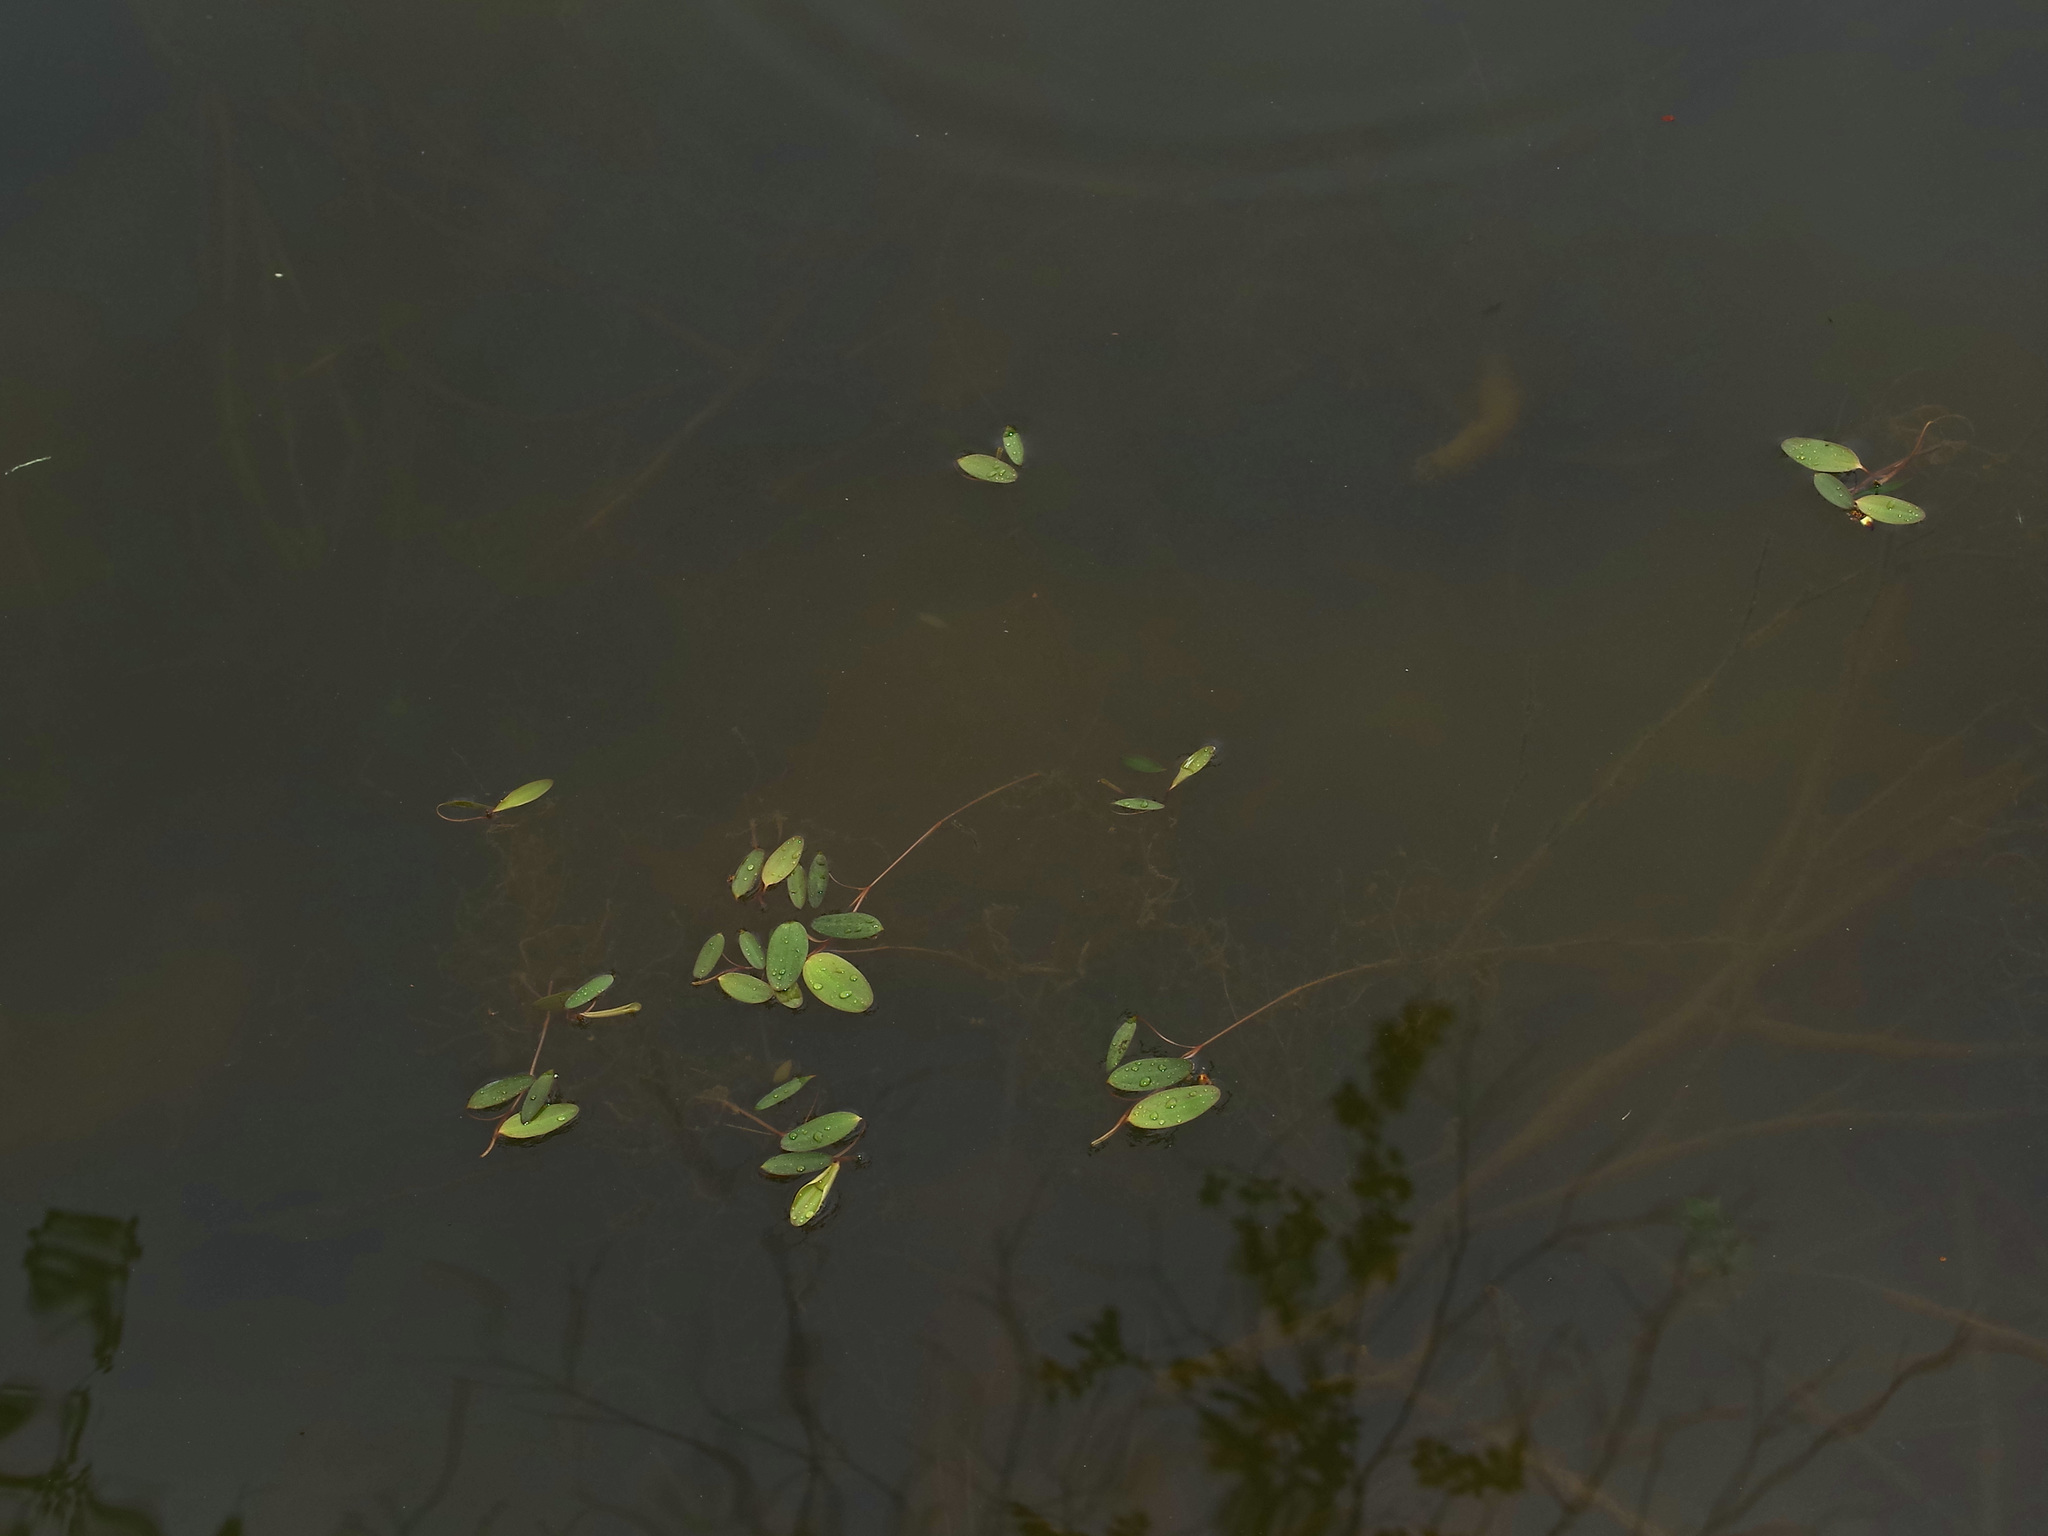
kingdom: Plantae
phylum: Tracheophyta
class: Liliopsida
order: Alismatales
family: Potamogetonaceae
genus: Potamogeton
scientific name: Potamogeton nodosus
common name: Loddon pondweed
